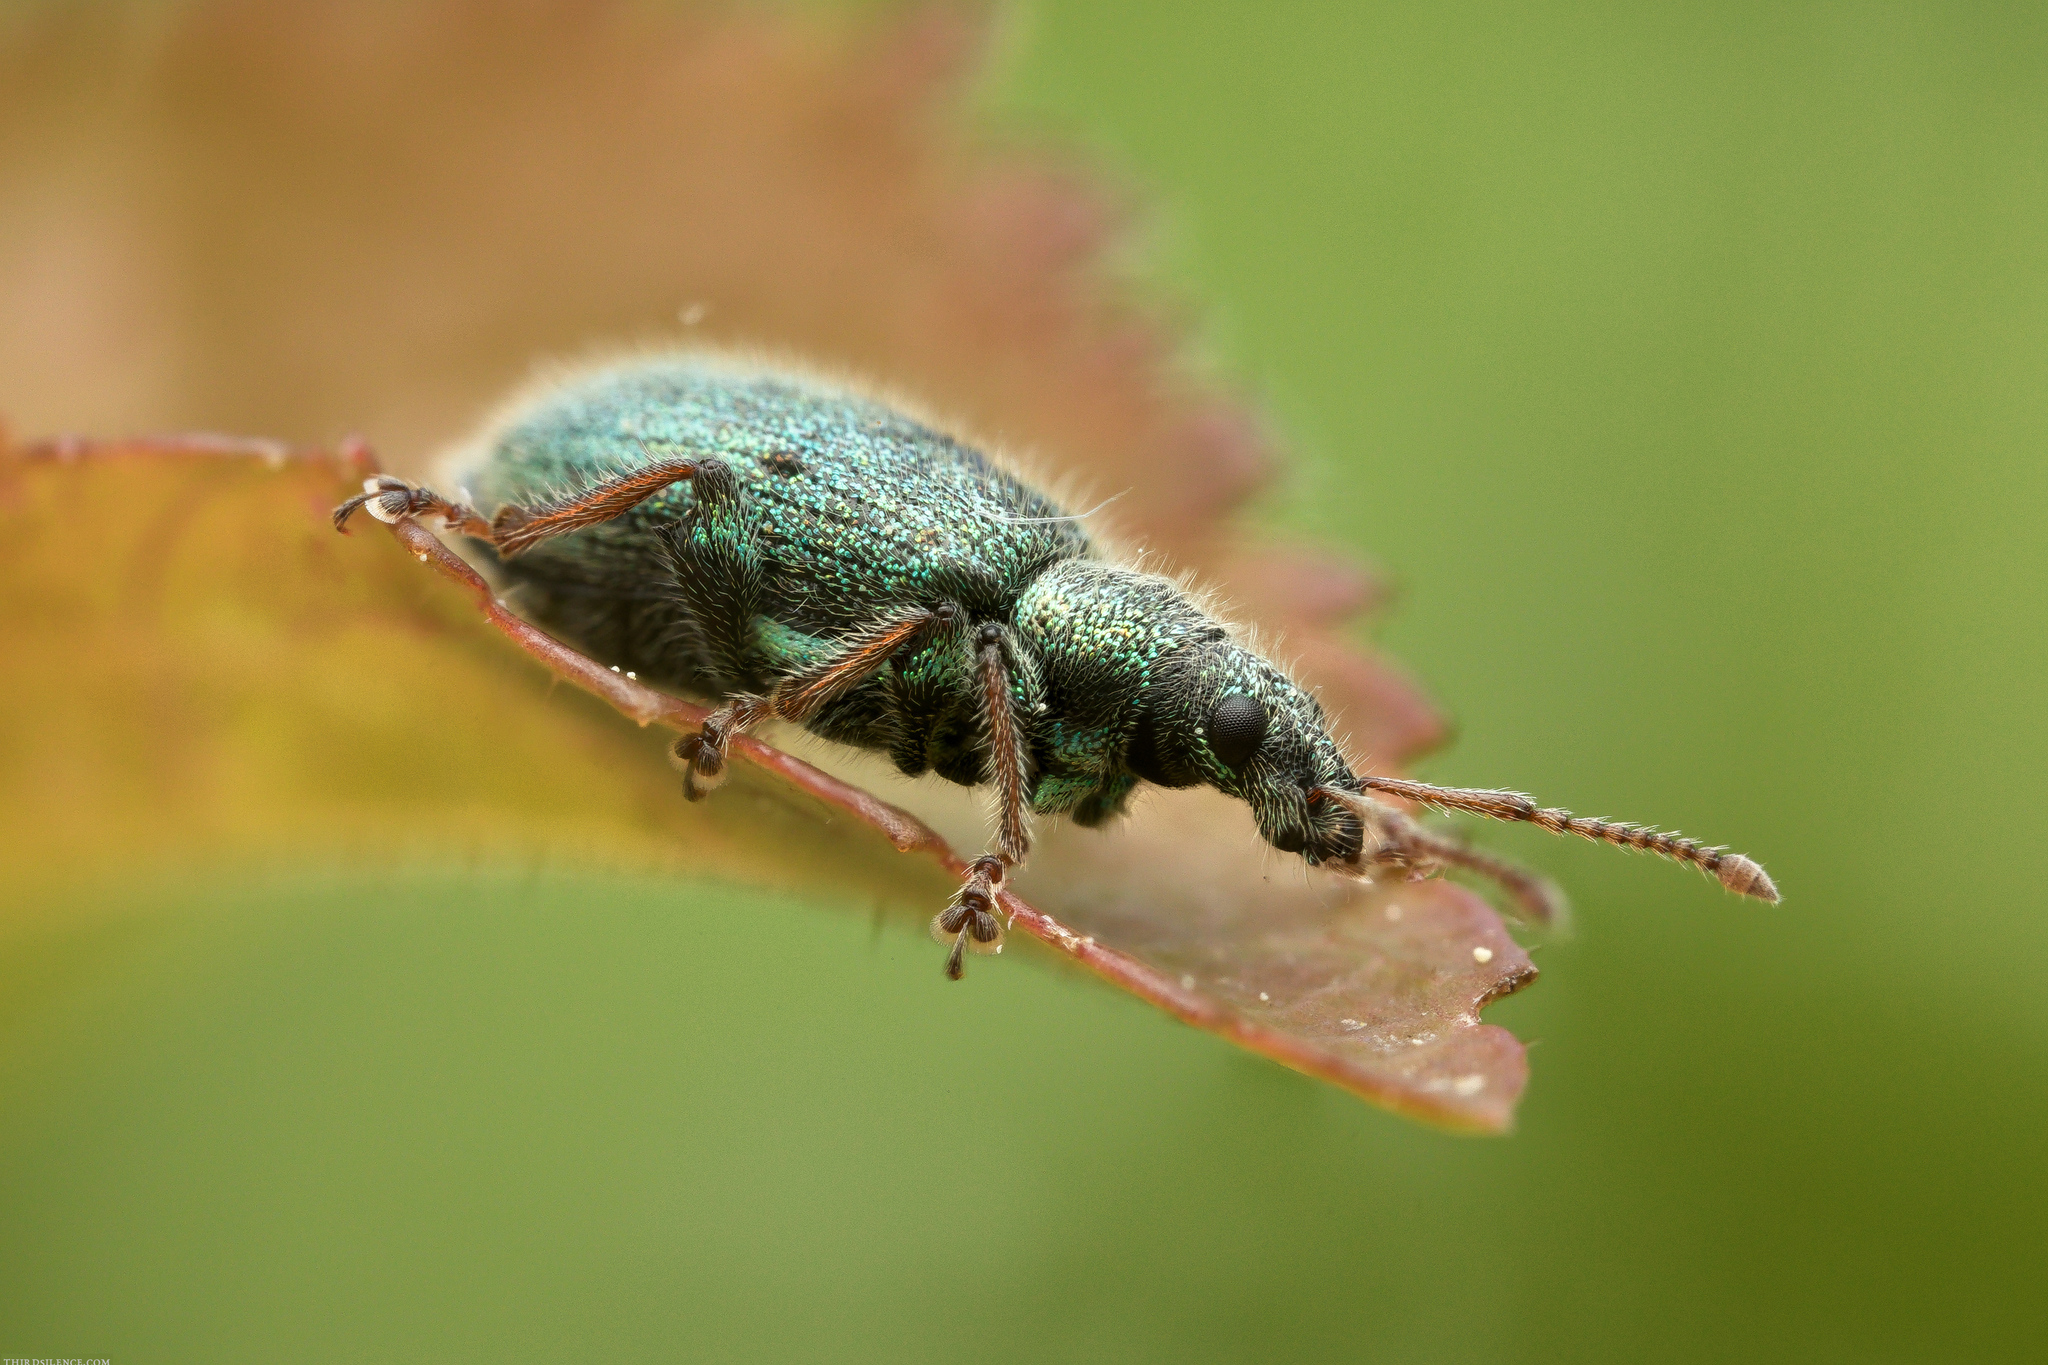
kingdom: Animalia
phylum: Arthropoda
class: Insecta
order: Coleoptera
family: Curculionidae
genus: Phyllobius
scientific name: Phyllobius betulinus
